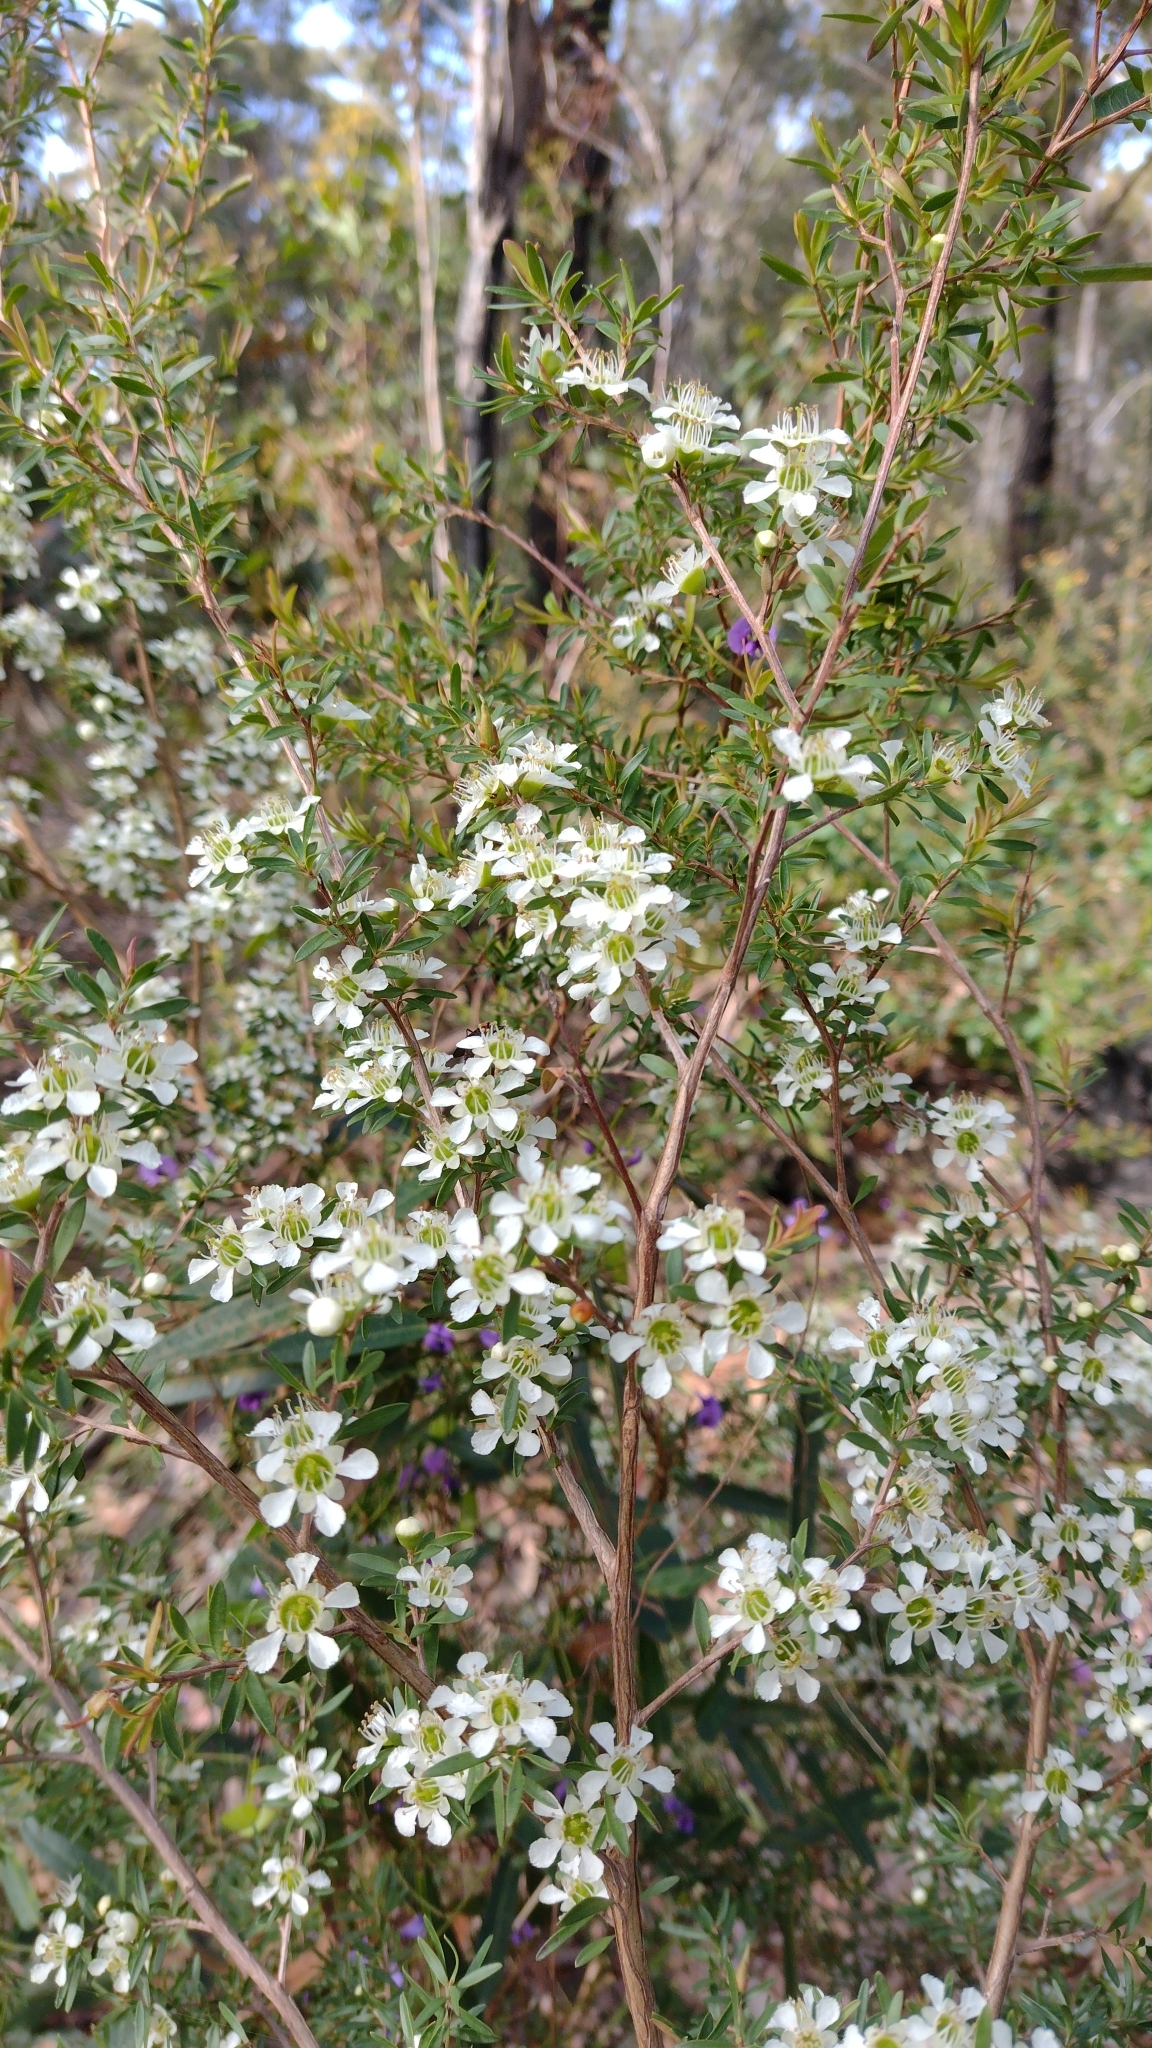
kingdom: Plantae
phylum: Tracheophyta
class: Magnoliopsida
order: Myrtales
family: Myrtaceae
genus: Leptospermum
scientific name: Leptospermum polygalifolium
